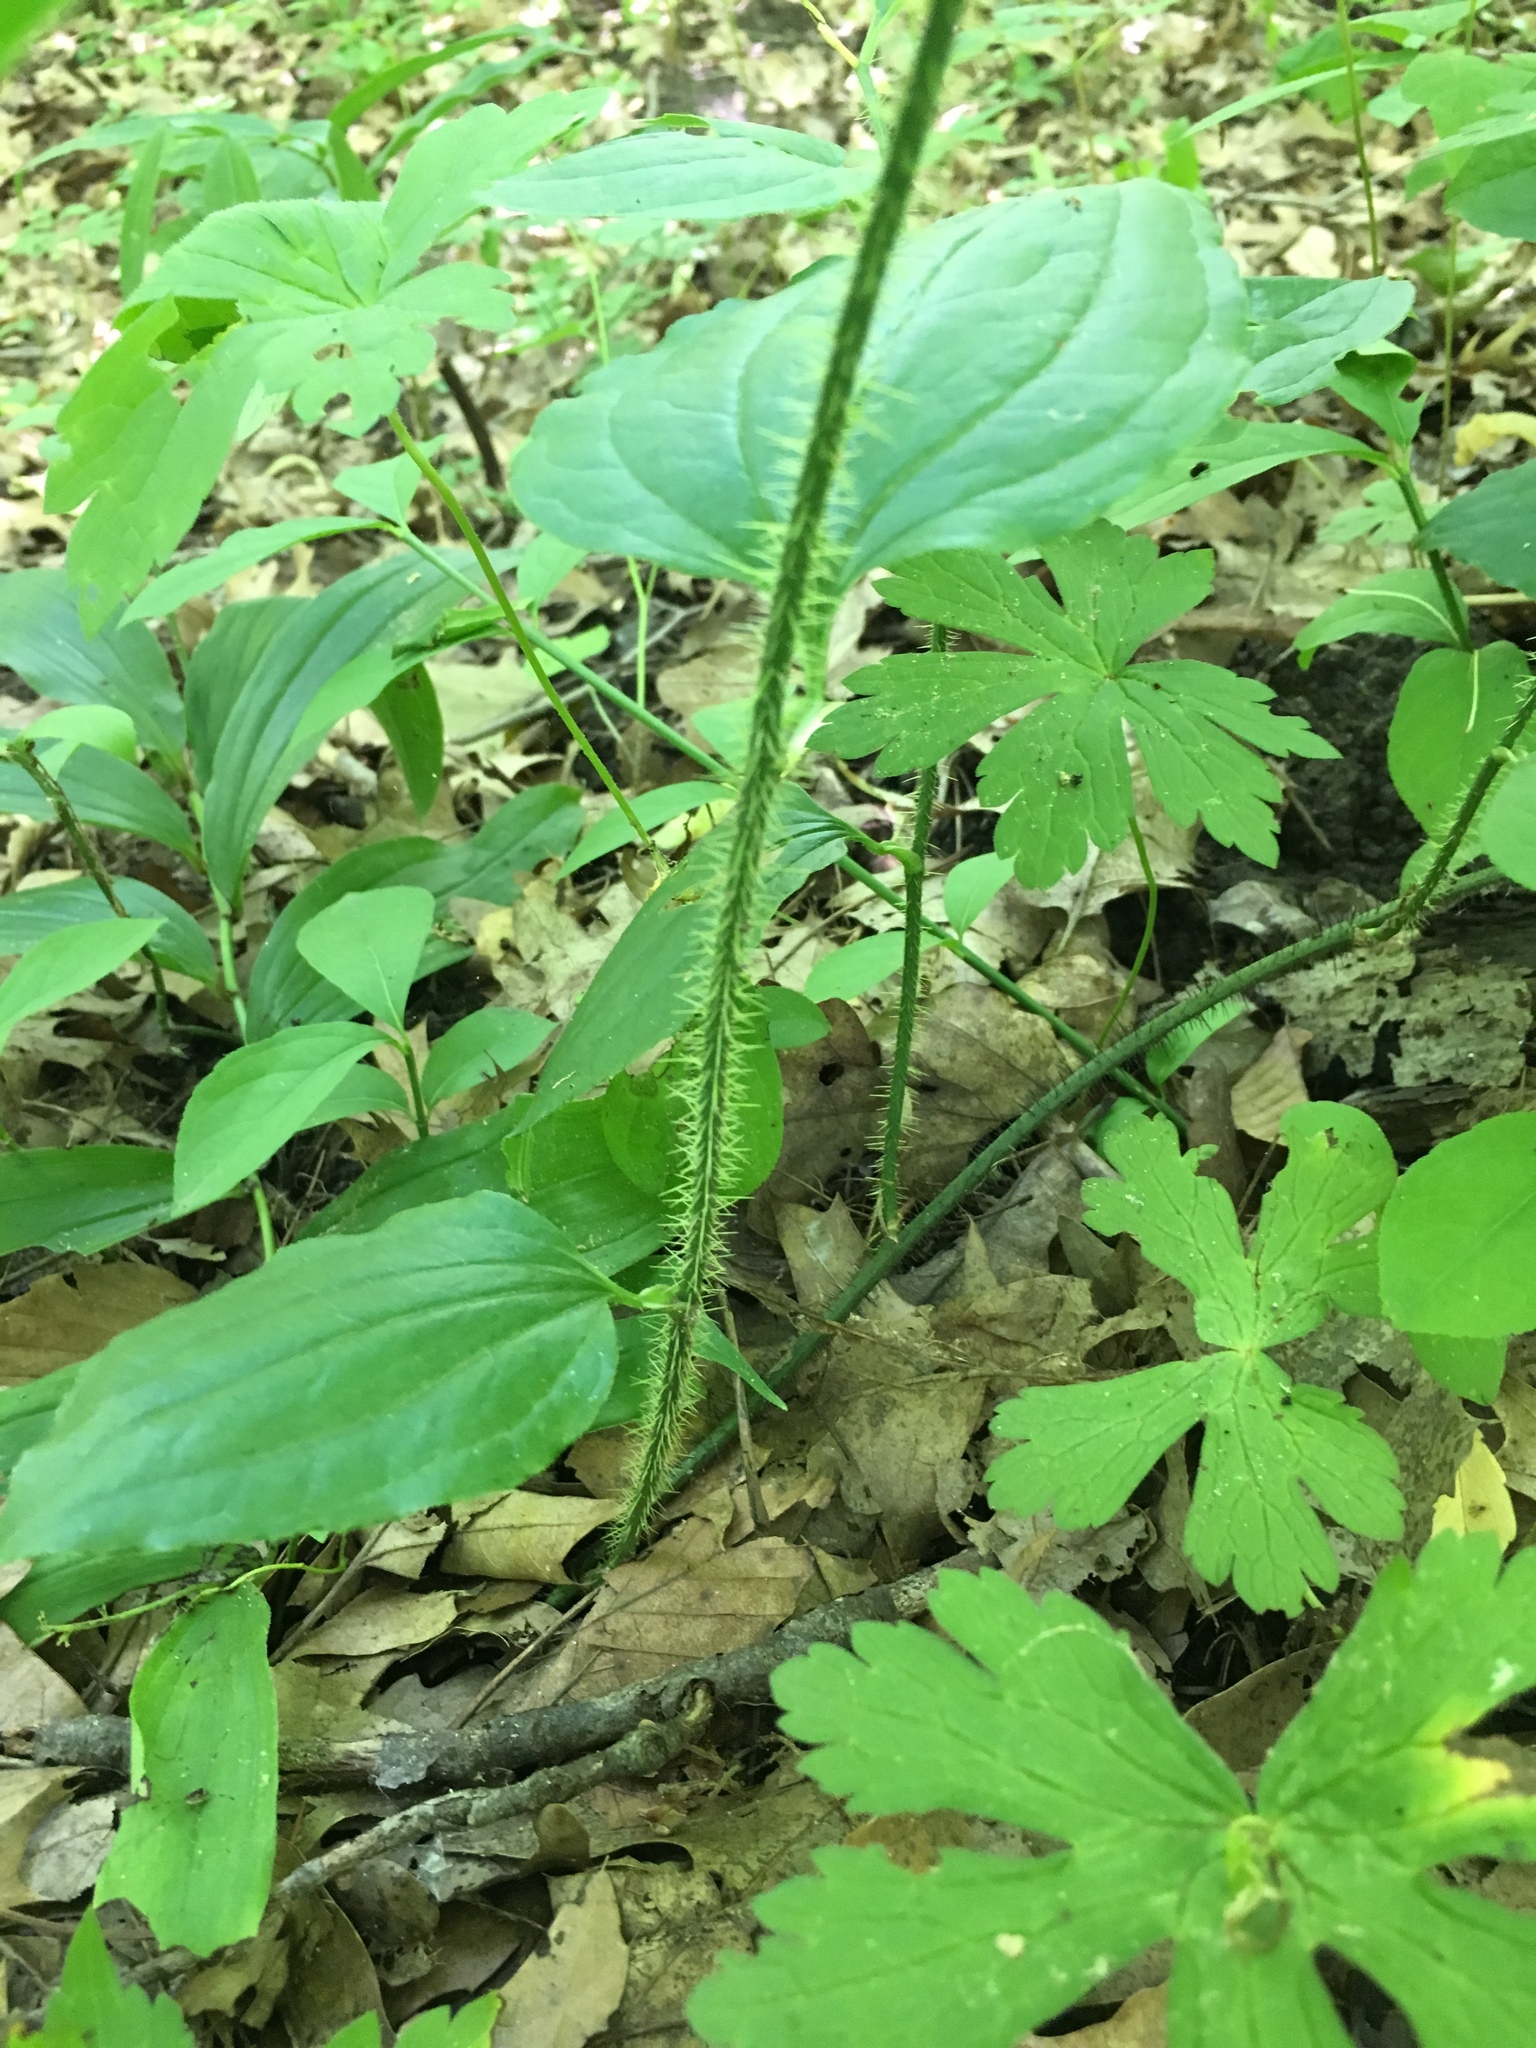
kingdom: Plantae
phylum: Tracheophyta
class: Liliopsida
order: Liliales
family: Smilacaceae
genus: Smilax
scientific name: Smilax tamnoides
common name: Hellfetter
